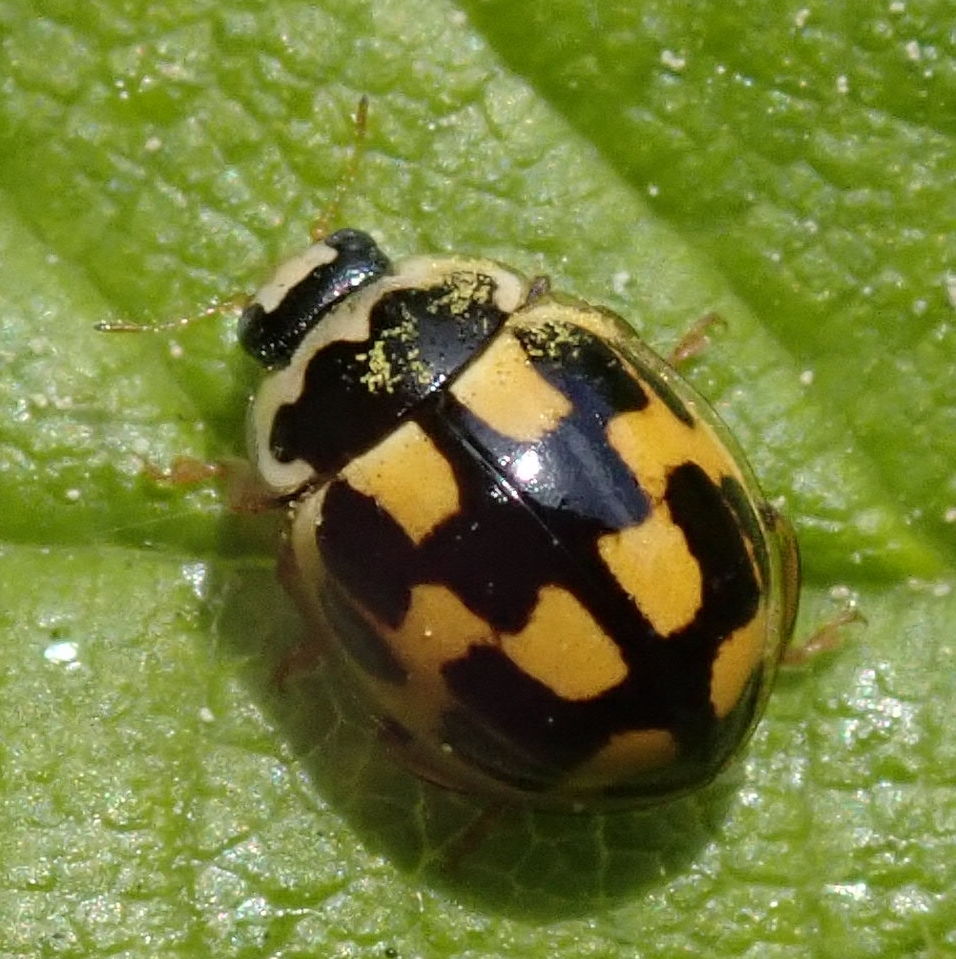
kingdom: Animalia
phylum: Arthropoda
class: Insecta
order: Coleoptera
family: Coccinellidae
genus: Propylaea
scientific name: Propylaea quatuordecimpunctata
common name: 14-spotted ladybird beetle
